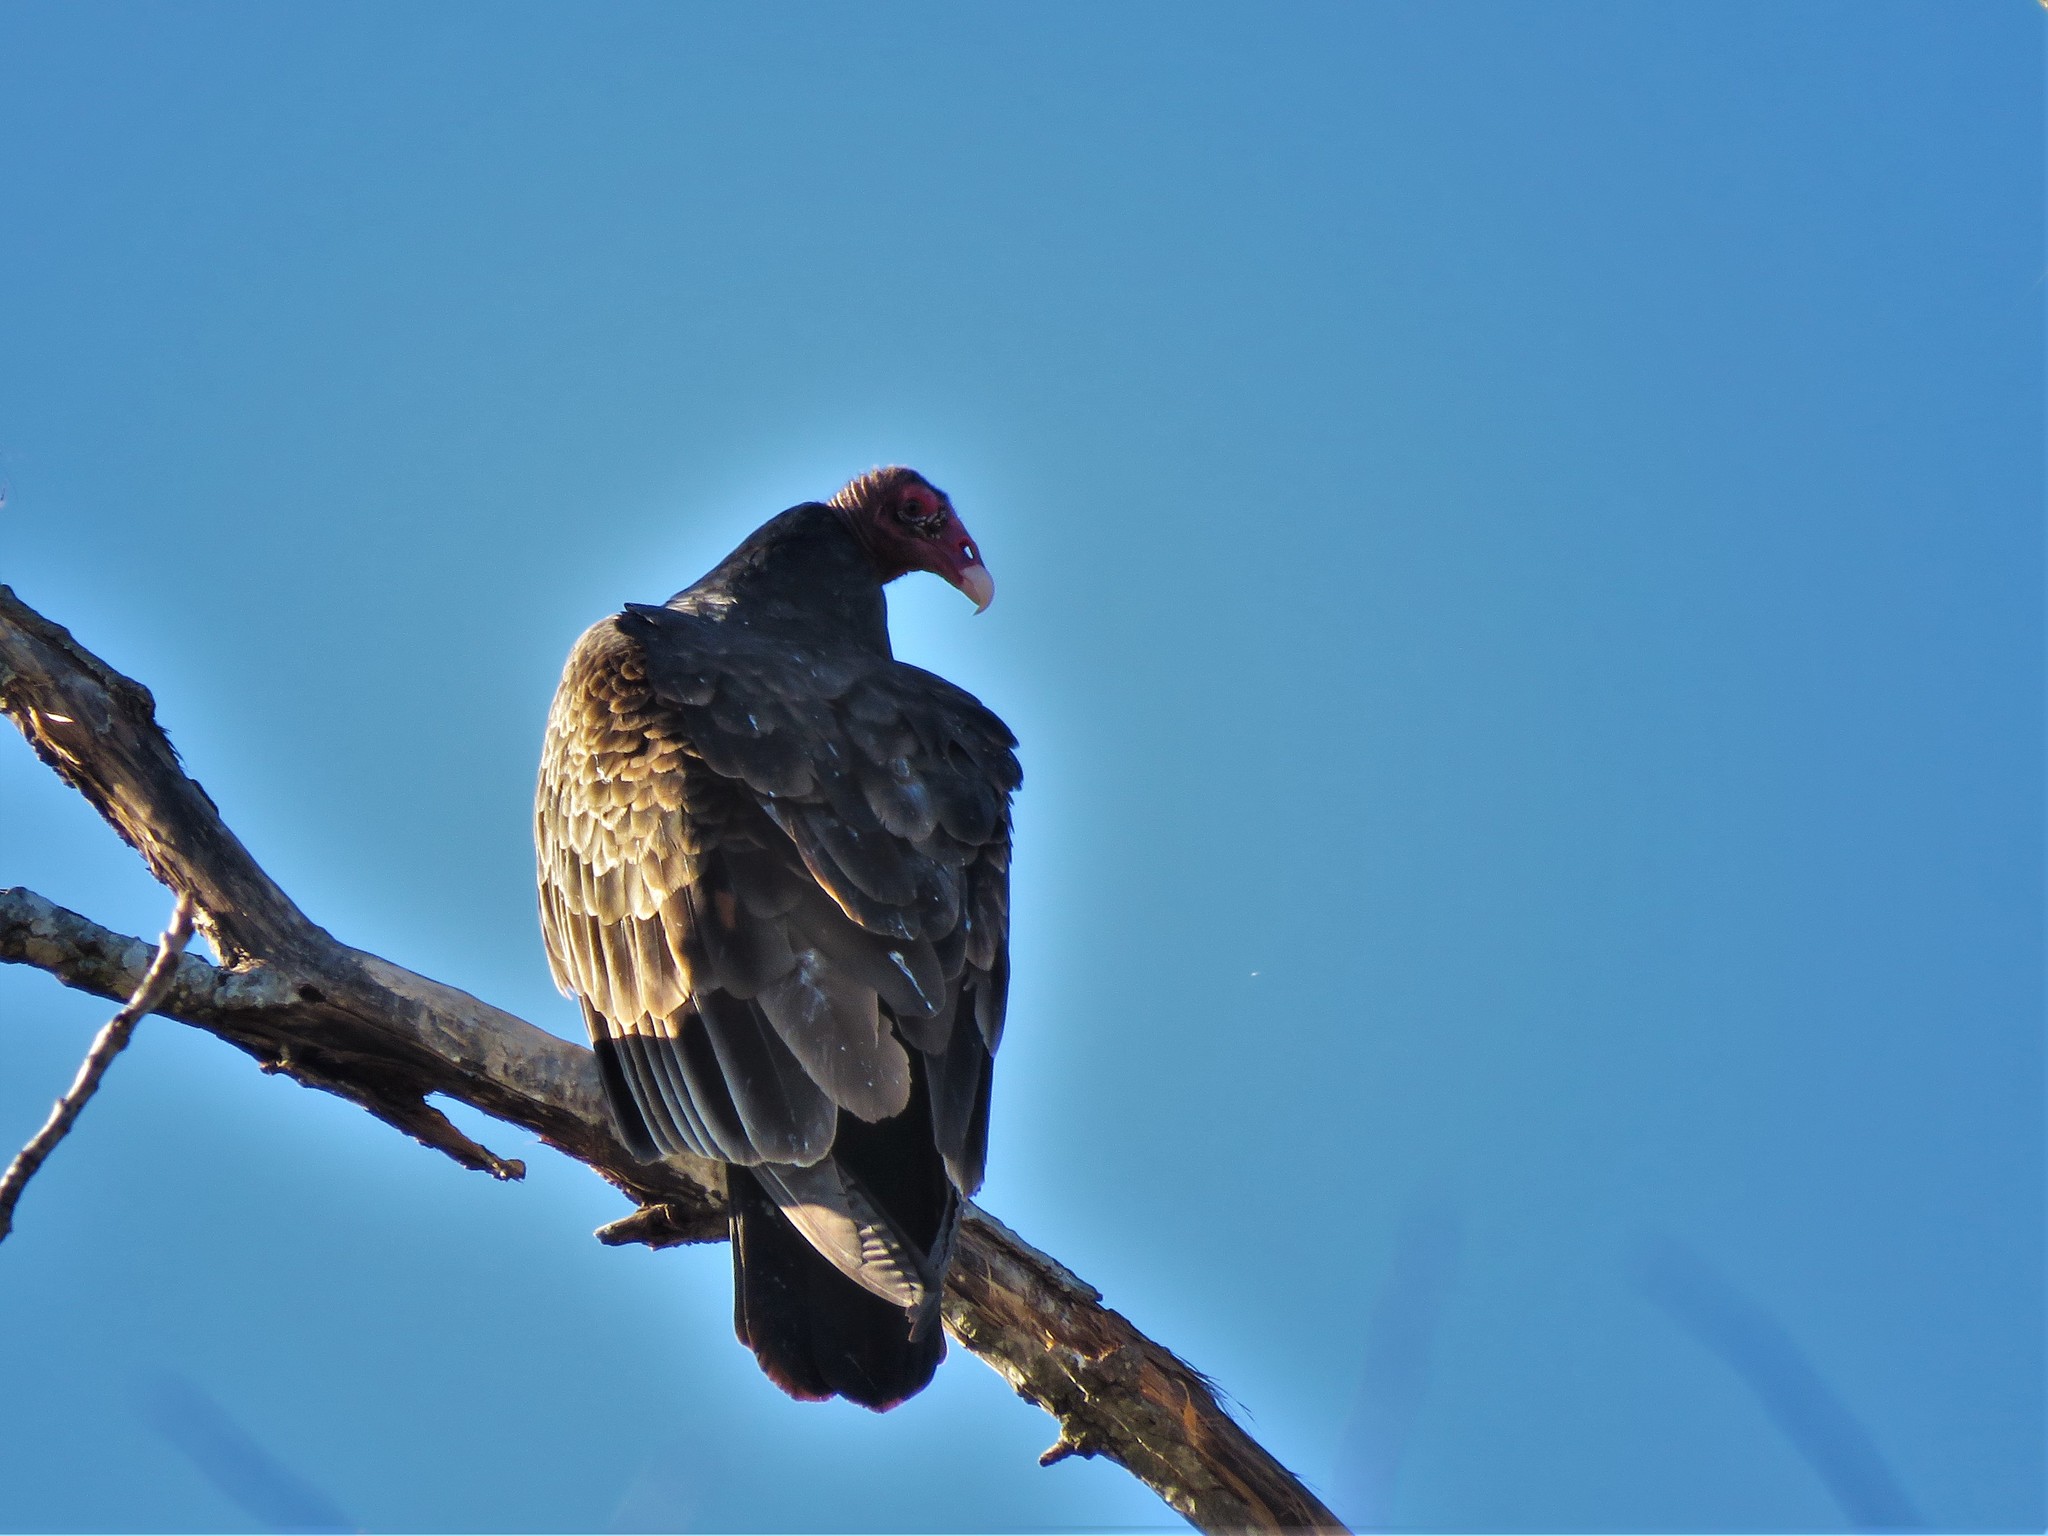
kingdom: Animalia
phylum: Chordata
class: Aves
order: Accipitriformes
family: Cathartidae
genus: Cathartes
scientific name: Cathartes aura
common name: Turkey vulture
